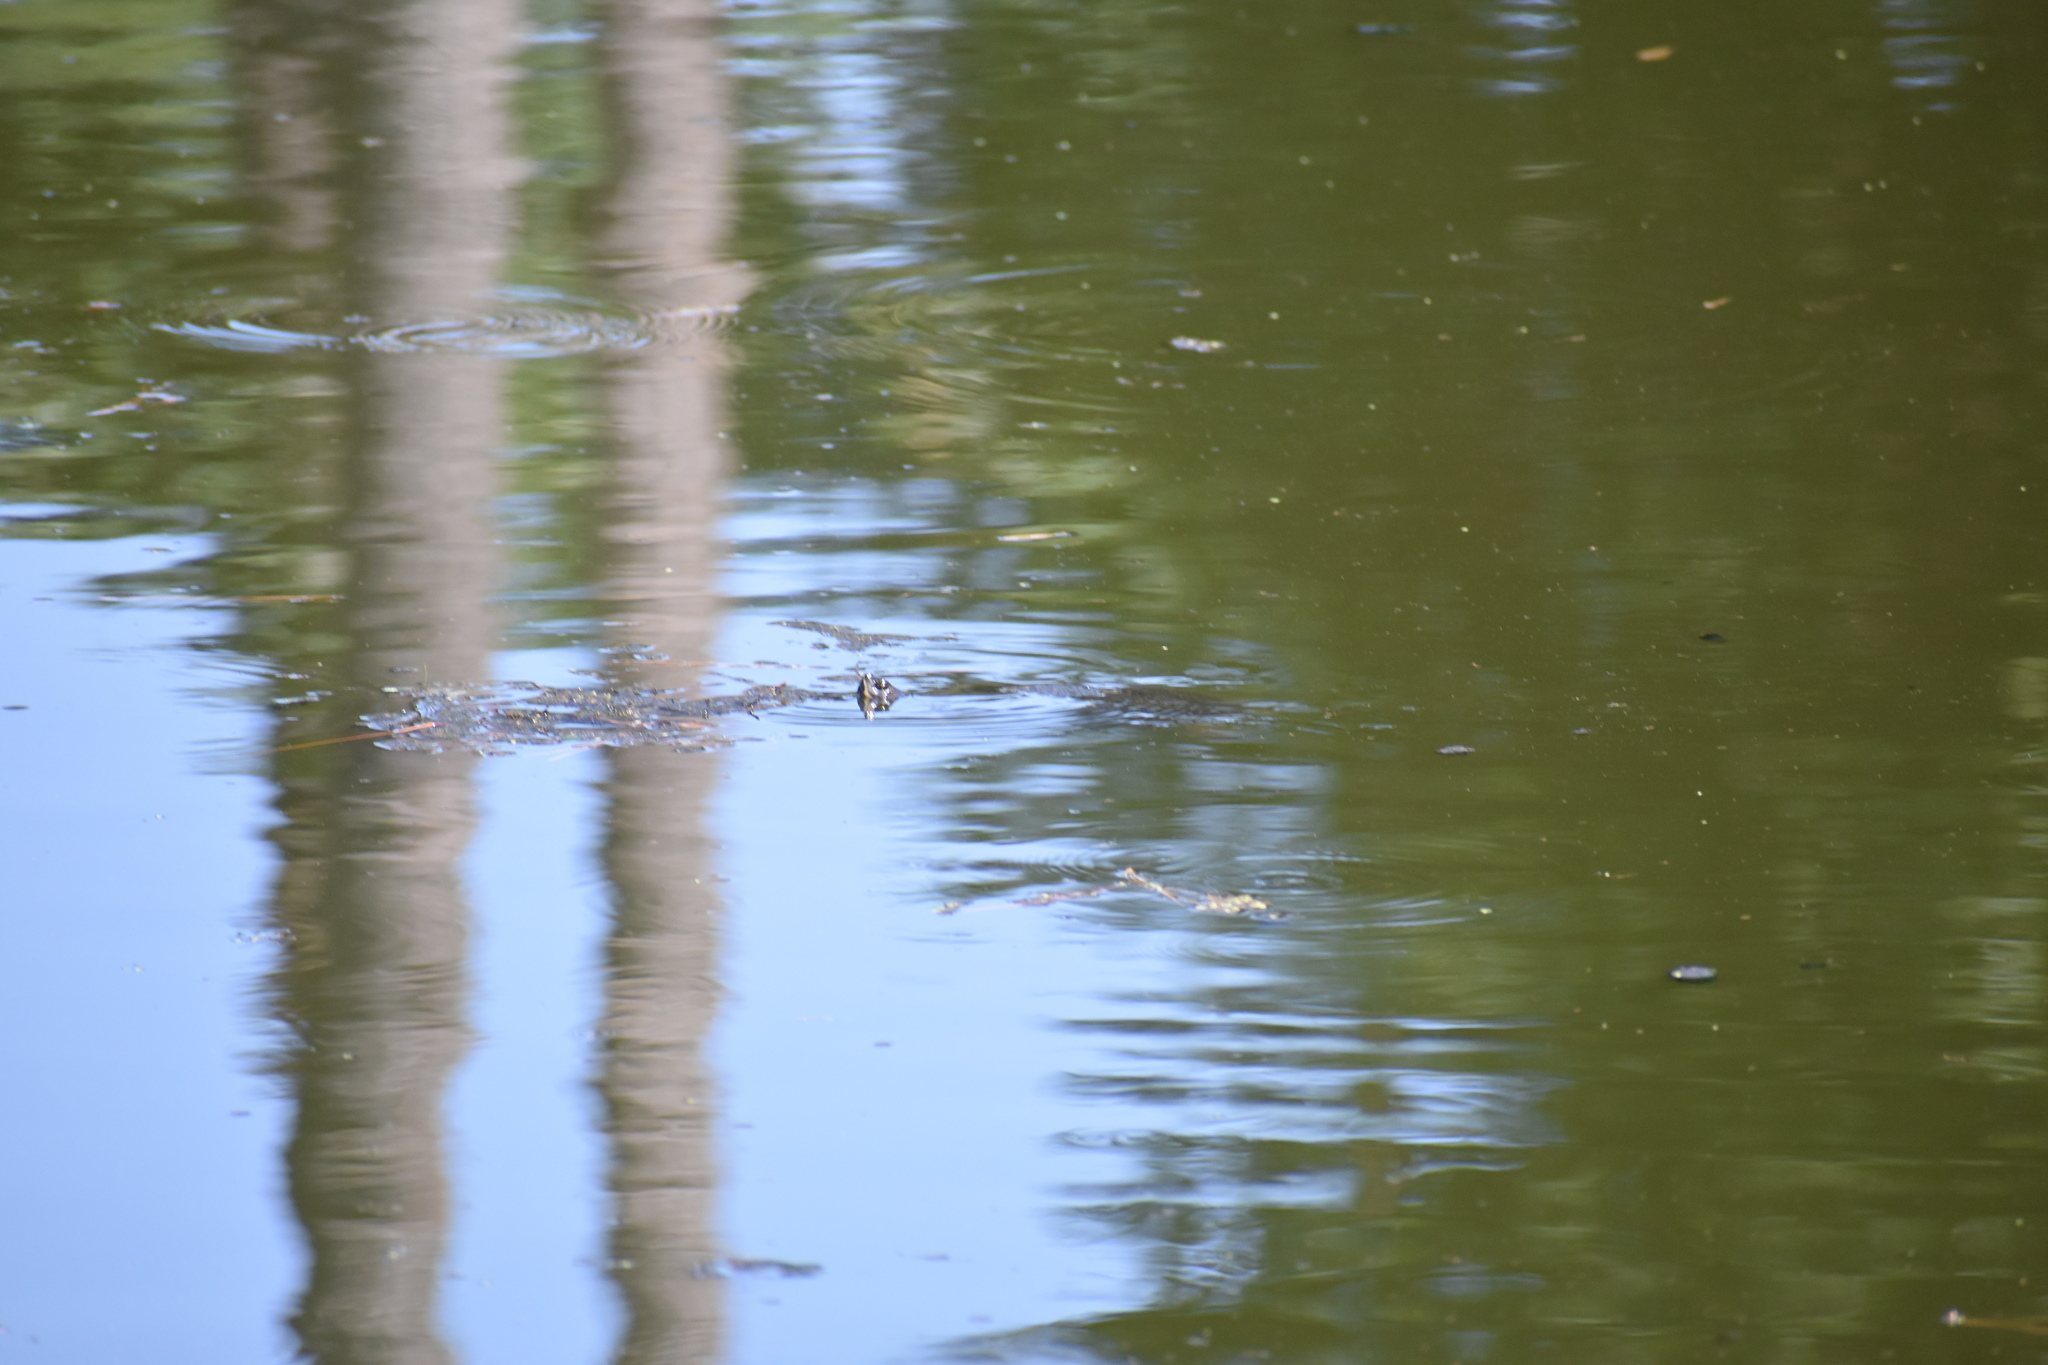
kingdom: Animalia
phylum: Chordata
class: Testudines
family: Emydidae
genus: Trachemys
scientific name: Trachemys scripta
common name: Slider
